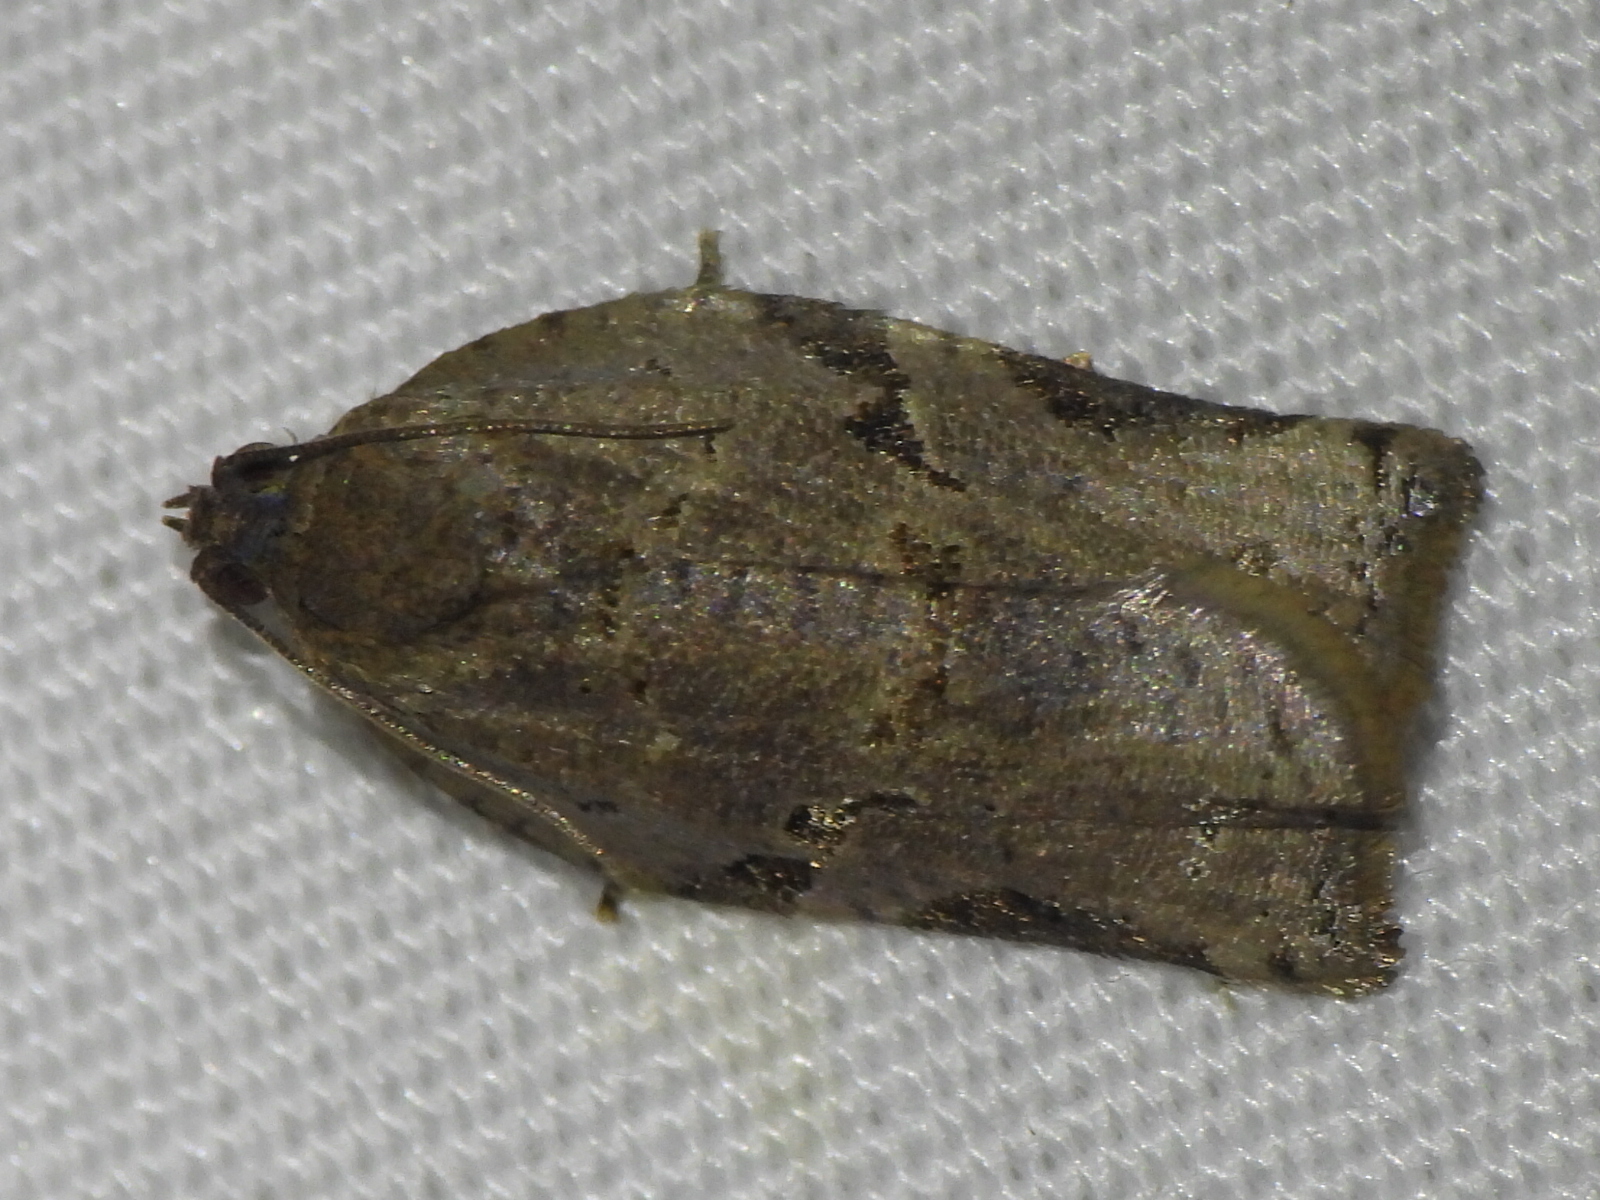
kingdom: Animalia
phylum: Arthropoda
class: Insecta
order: Lepidoptera
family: Tortricidae
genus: Archips
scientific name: Archips grisea
